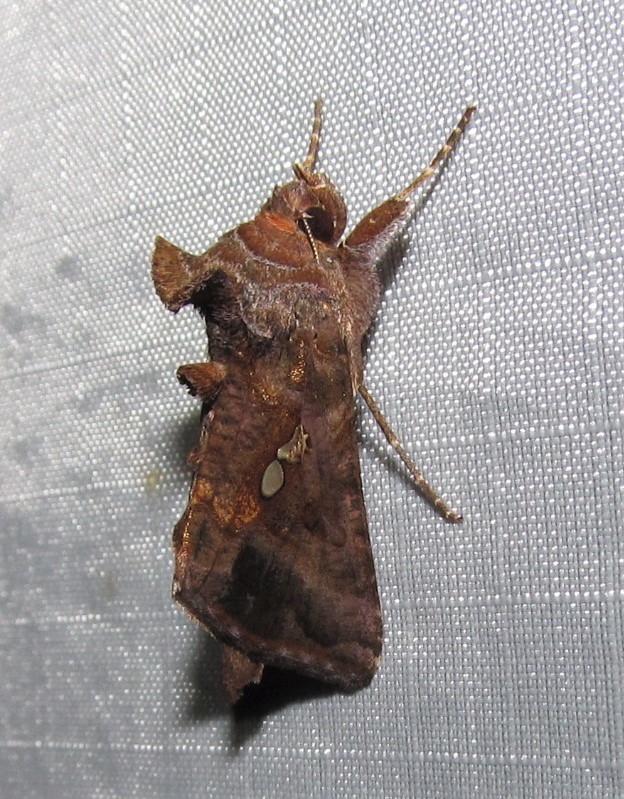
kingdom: Animalia
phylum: Arthropoda
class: Insecta
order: Lepidoptera
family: Noctuidae
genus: Autographa
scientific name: Autographa precationis
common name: Common looper moth
